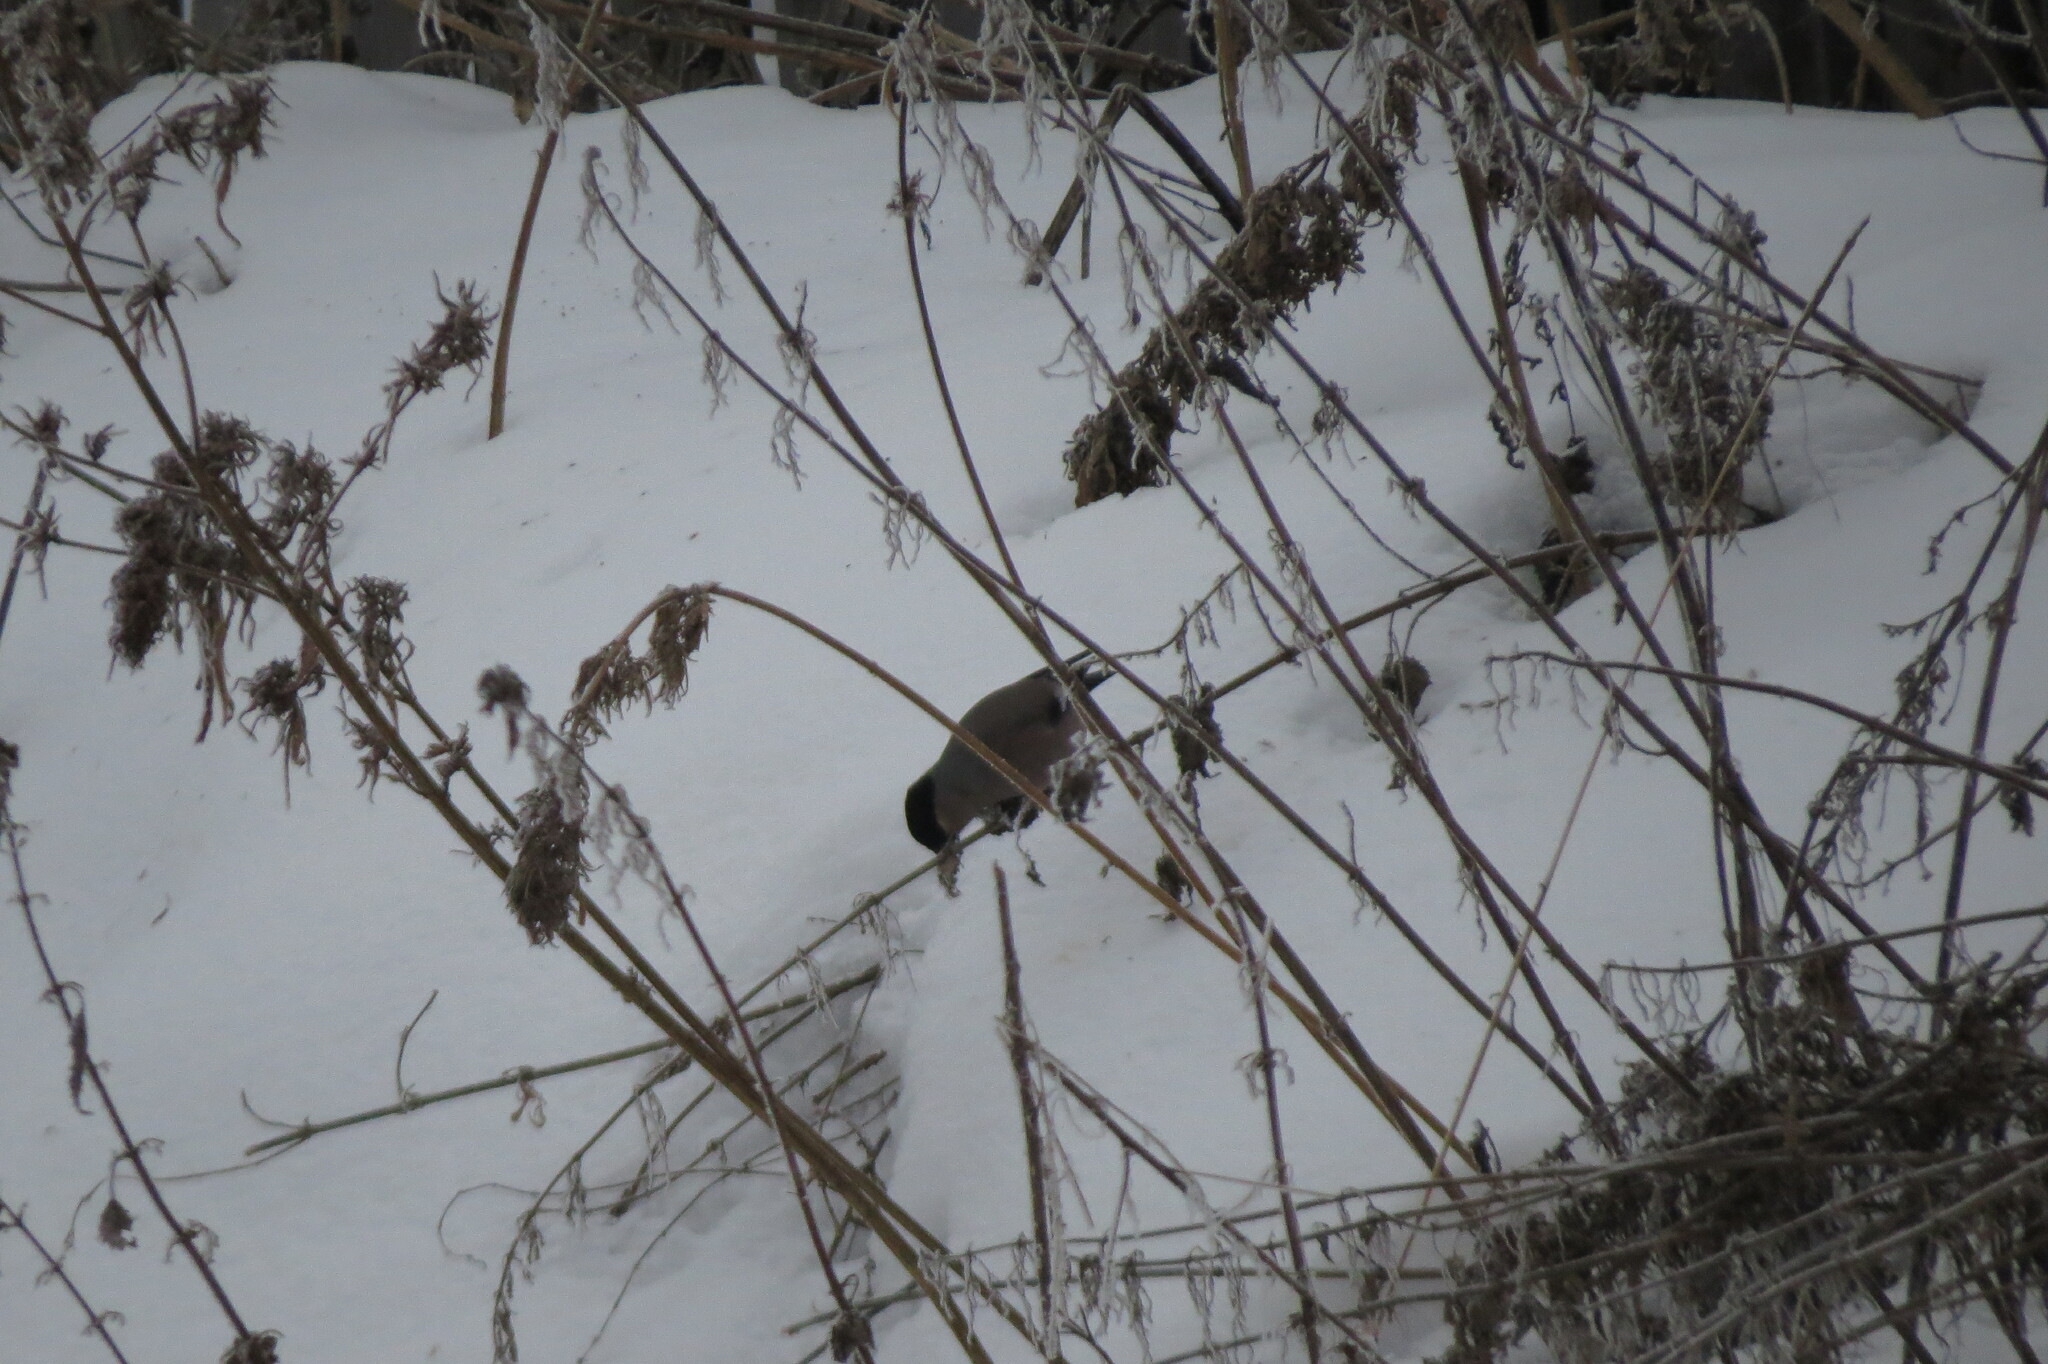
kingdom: Animalia
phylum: Chordata
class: Aves
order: Passeriformes
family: Fringillidae
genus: Pyrrhula
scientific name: Pyrrhula pyrrhula
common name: Eurasian bullfinch
